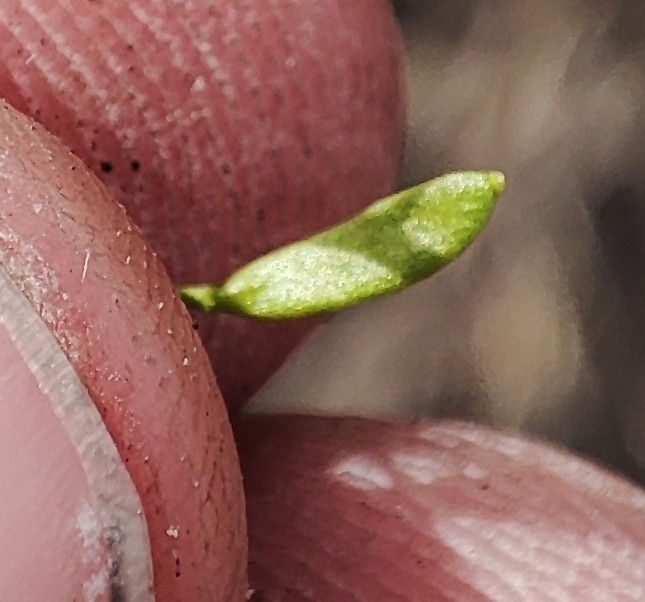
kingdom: Plantae
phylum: Tracheophyta
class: Magnoliopsida
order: Brassicales
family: Brassicaceae
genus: Draba
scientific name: Draba nemorosa
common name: Wood whitlow-grass
